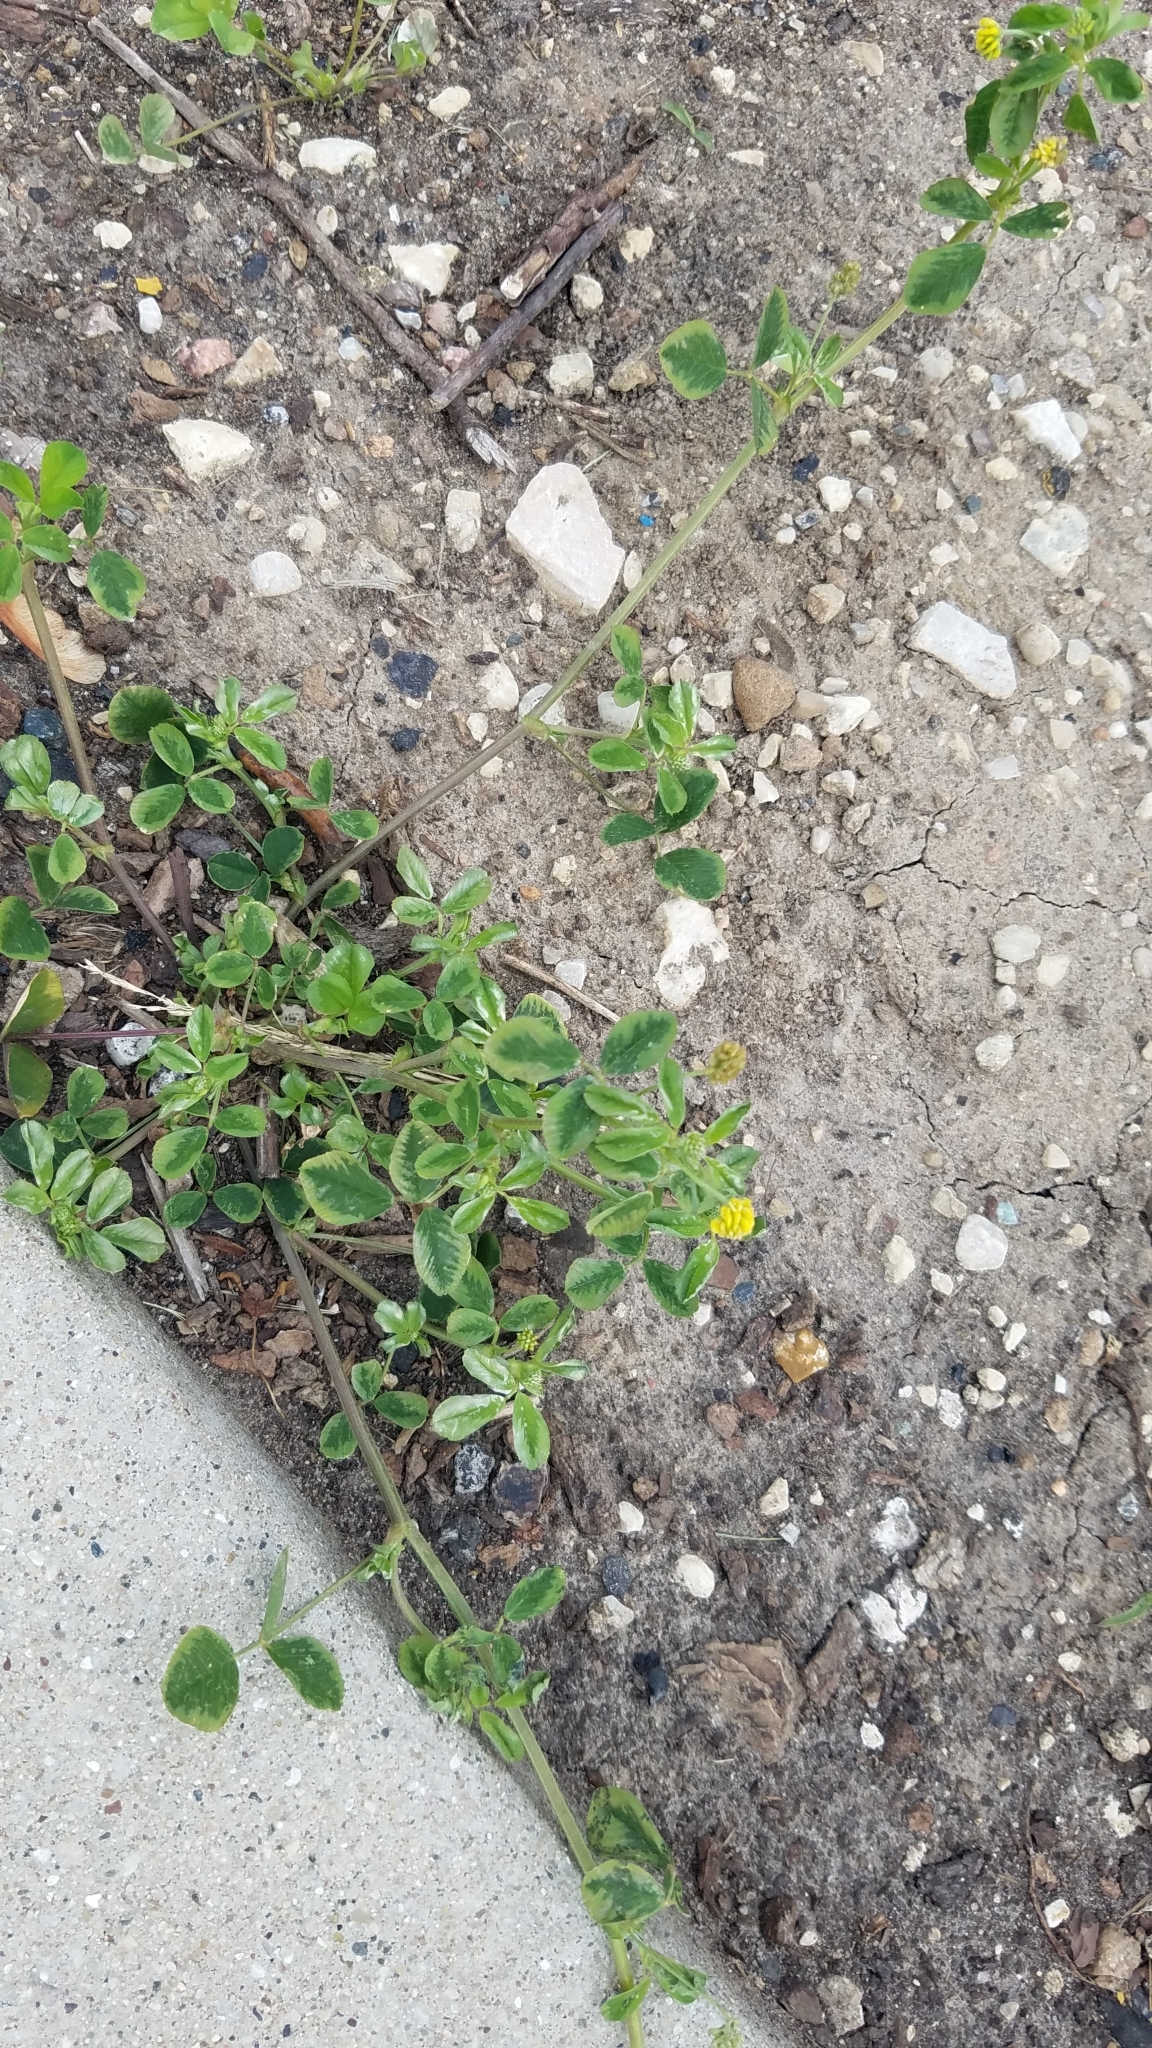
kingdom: Plantae
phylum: Tracheophyta
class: Magnoliopsida
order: Fabales
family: Fabaceae
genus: Medicago
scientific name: Medicago lupulina
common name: Black medick
